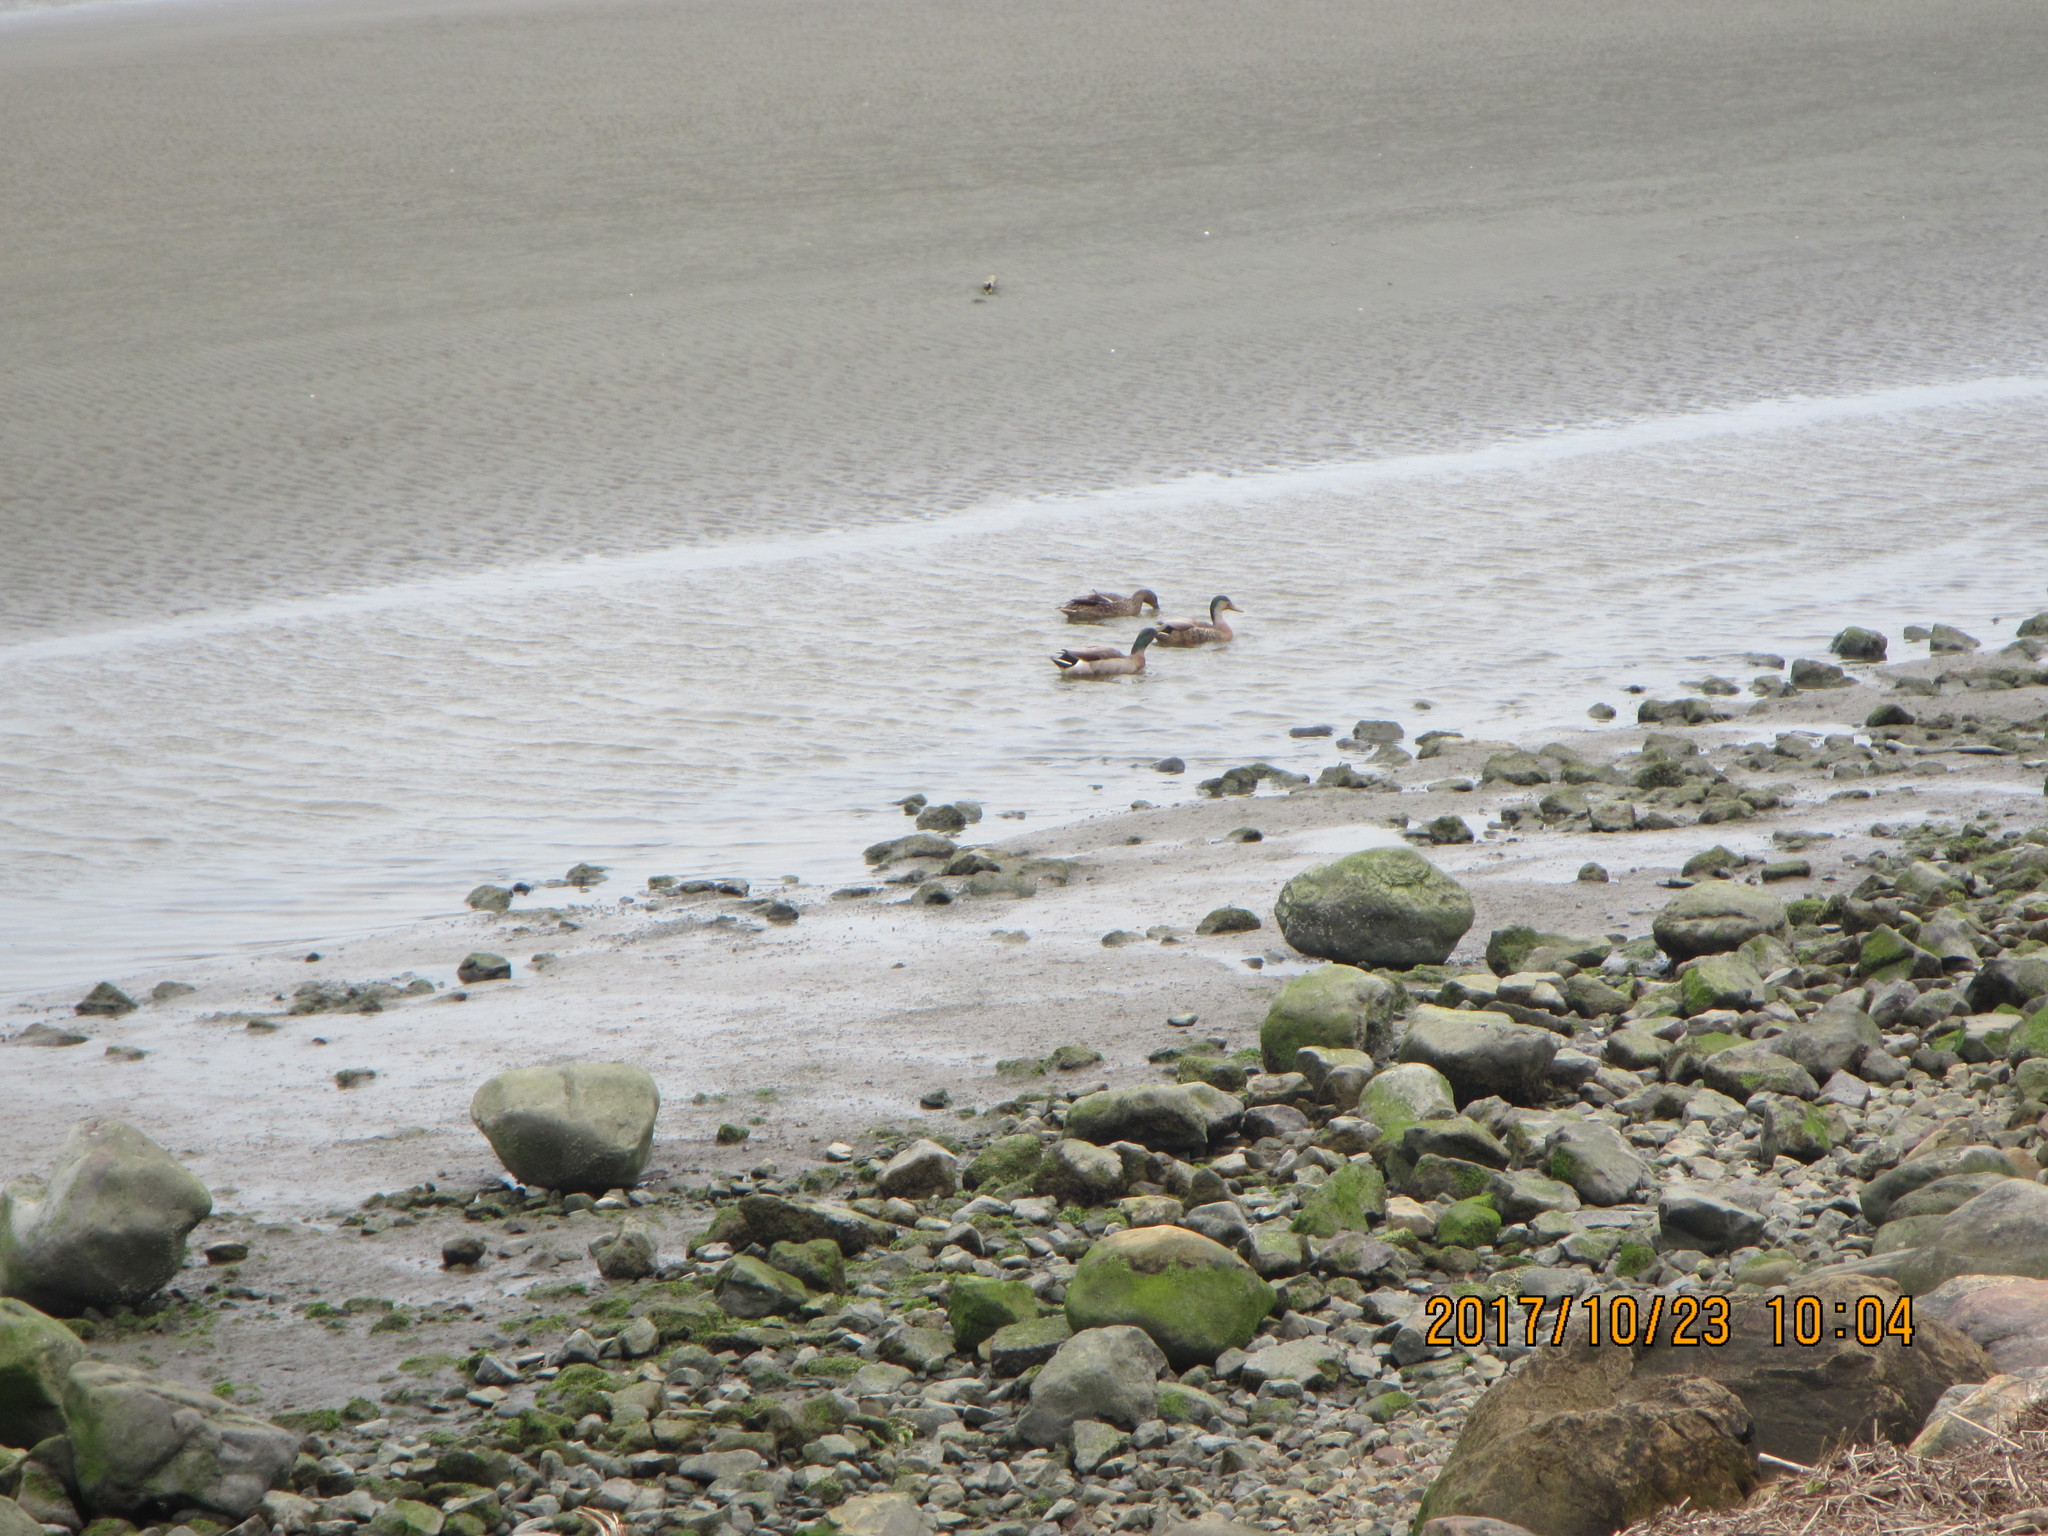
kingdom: Animalia
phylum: Chordata
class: Aves
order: Anseriformes
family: Anatidae
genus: Anas
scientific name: Anas platyrhynchos
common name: Mallard
